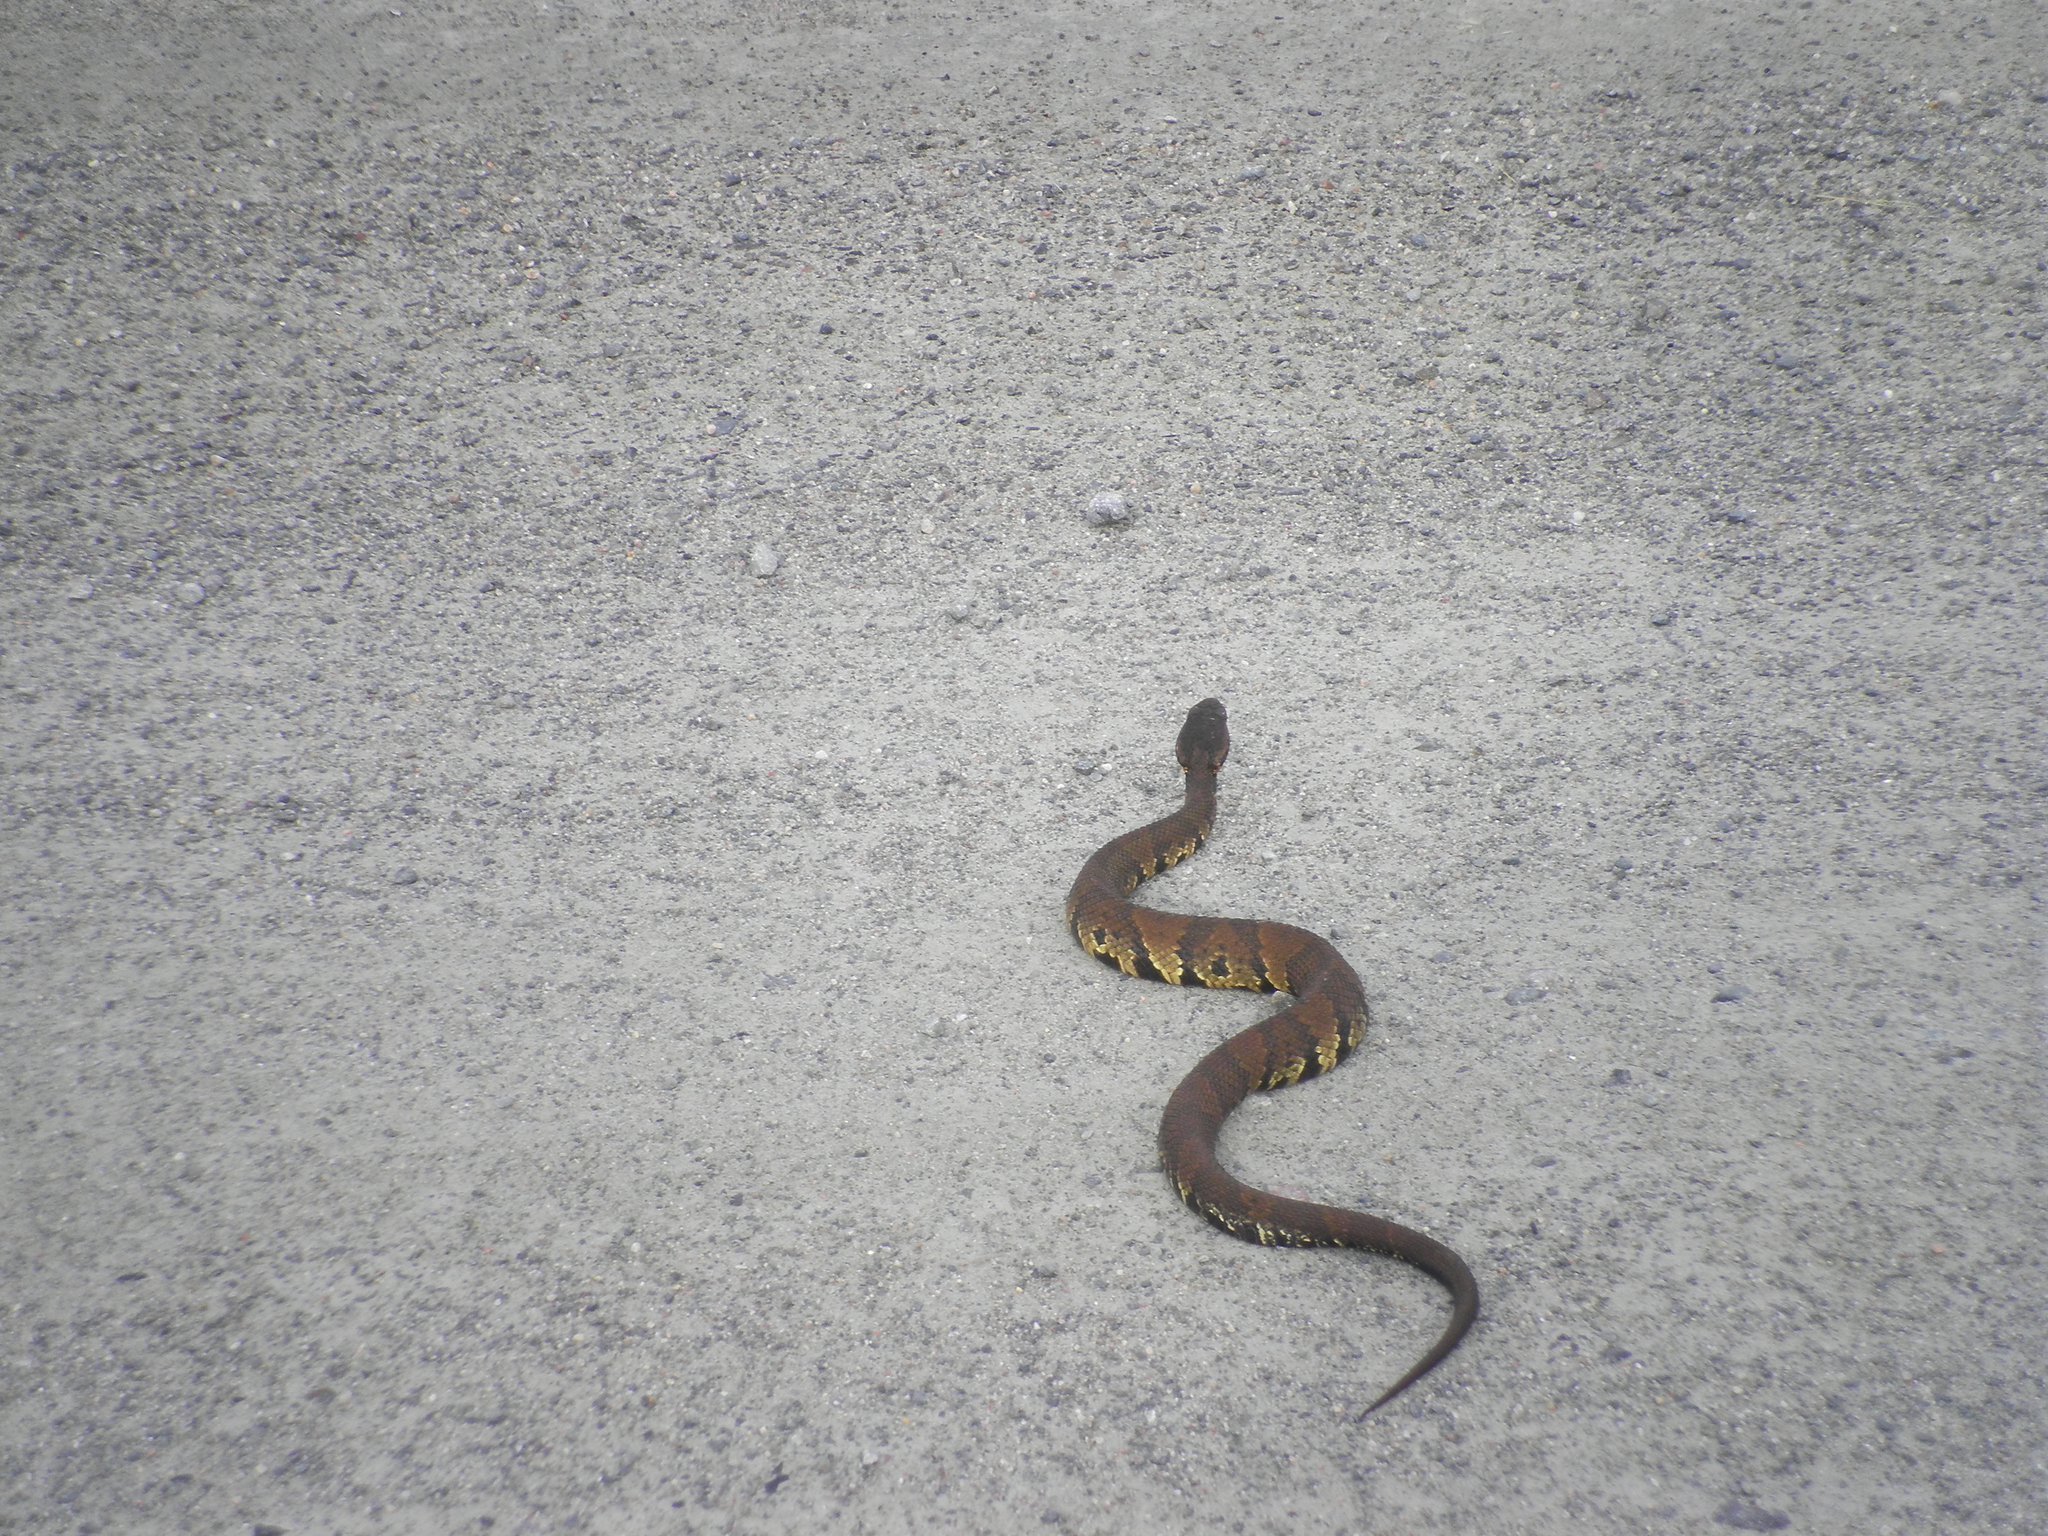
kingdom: Animalia
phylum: Chordata
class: Squamata
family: Viperidae
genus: Agkistrodon
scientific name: Agkistrodon piscivorus
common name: Cottonmouth
